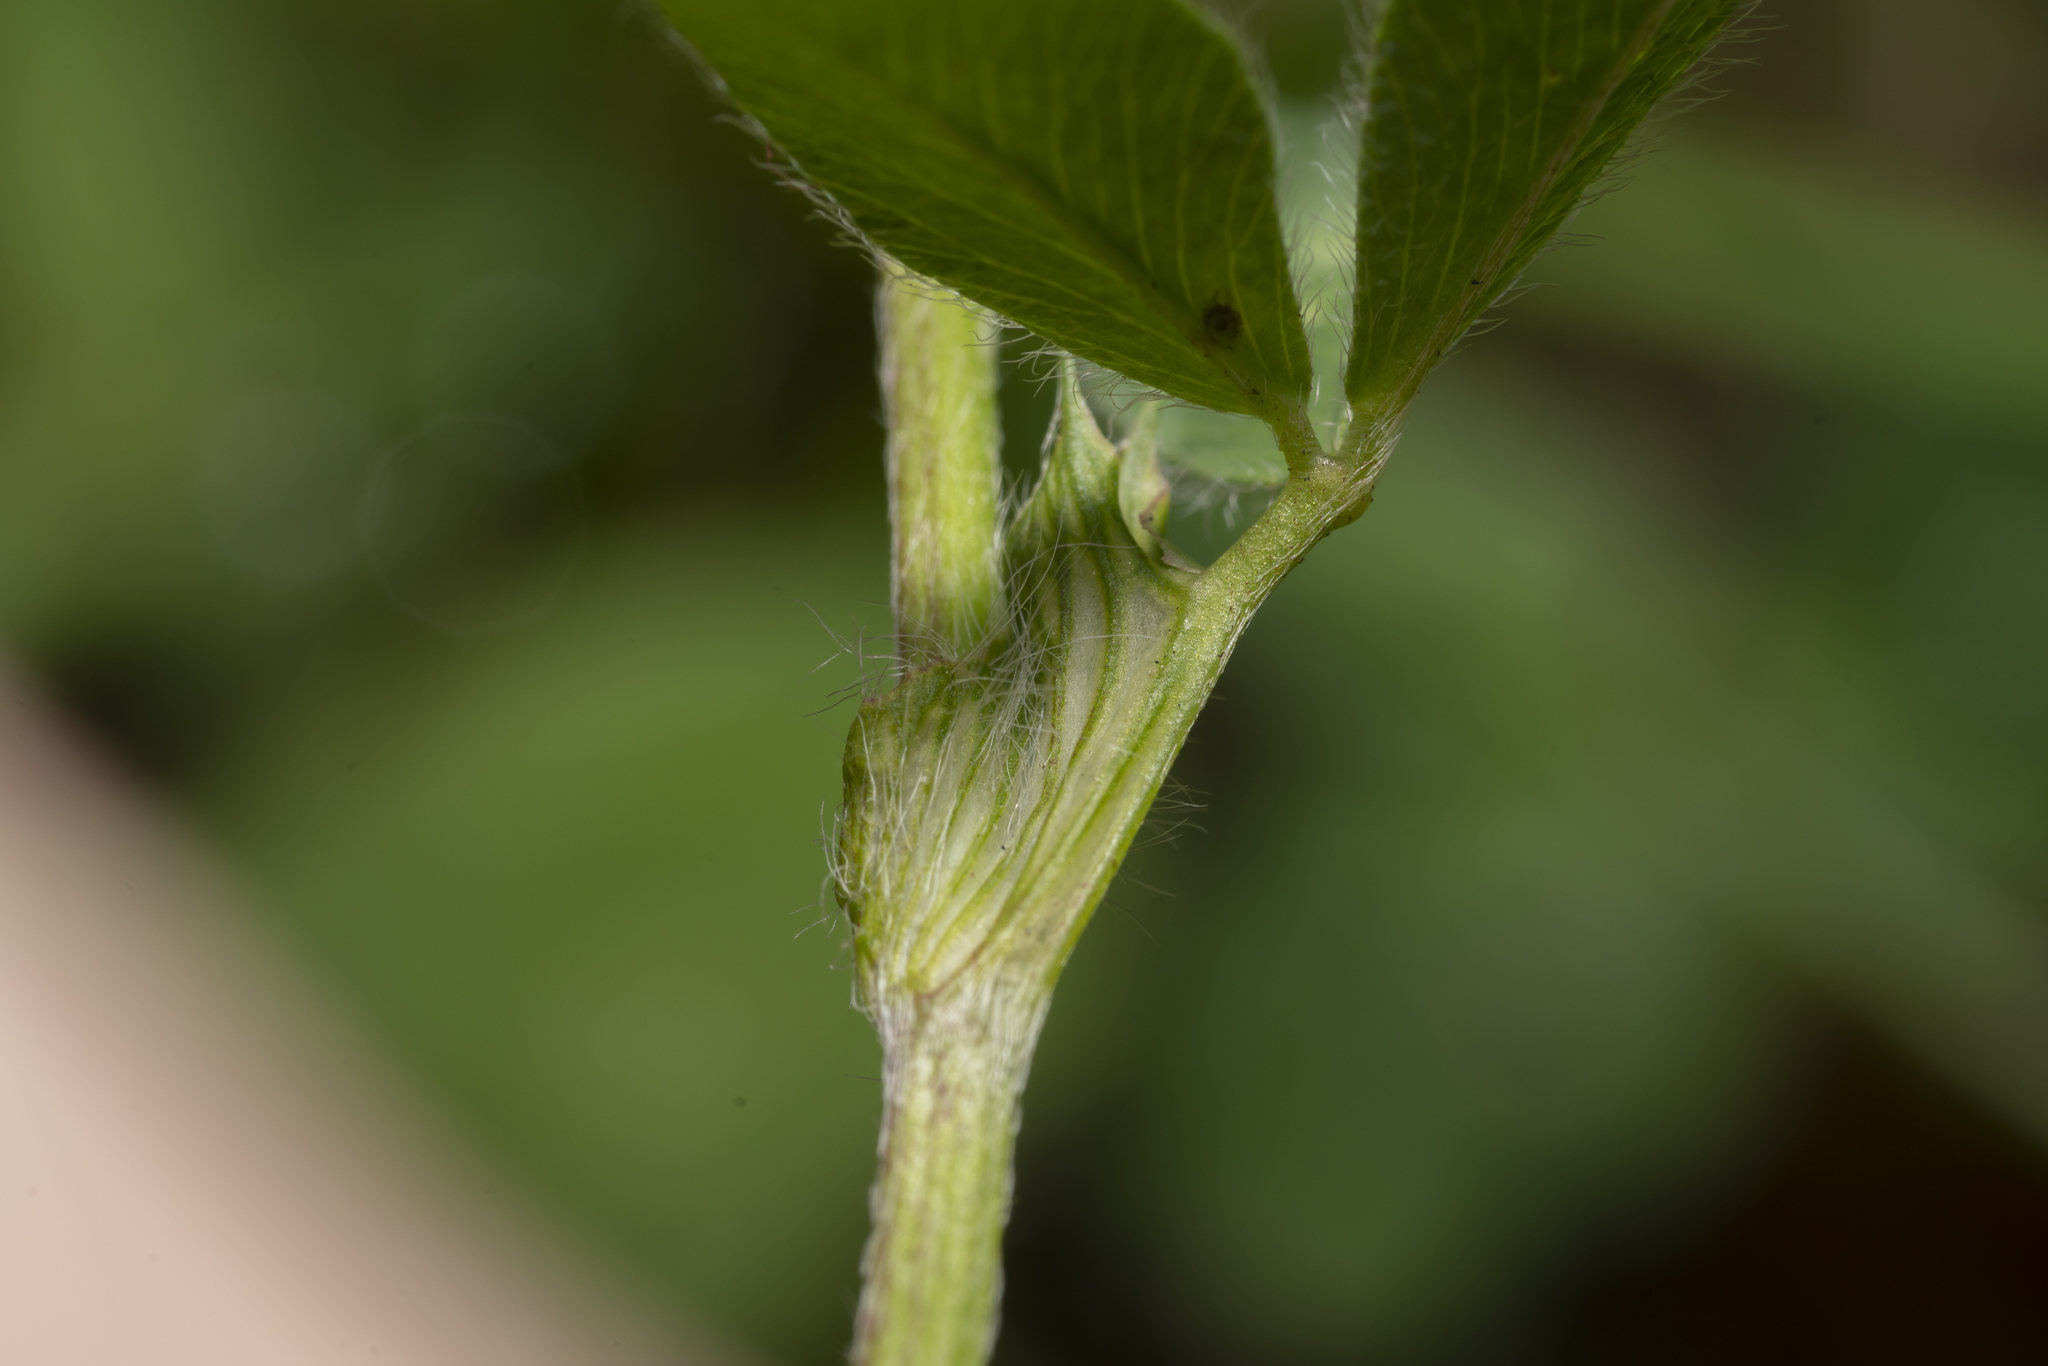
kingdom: Plantae
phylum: Tracheophyta
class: Magnoliopsida
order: Fabales
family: Fabaceae
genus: Trifolium
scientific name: Trifolium pratense
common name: Red clover
